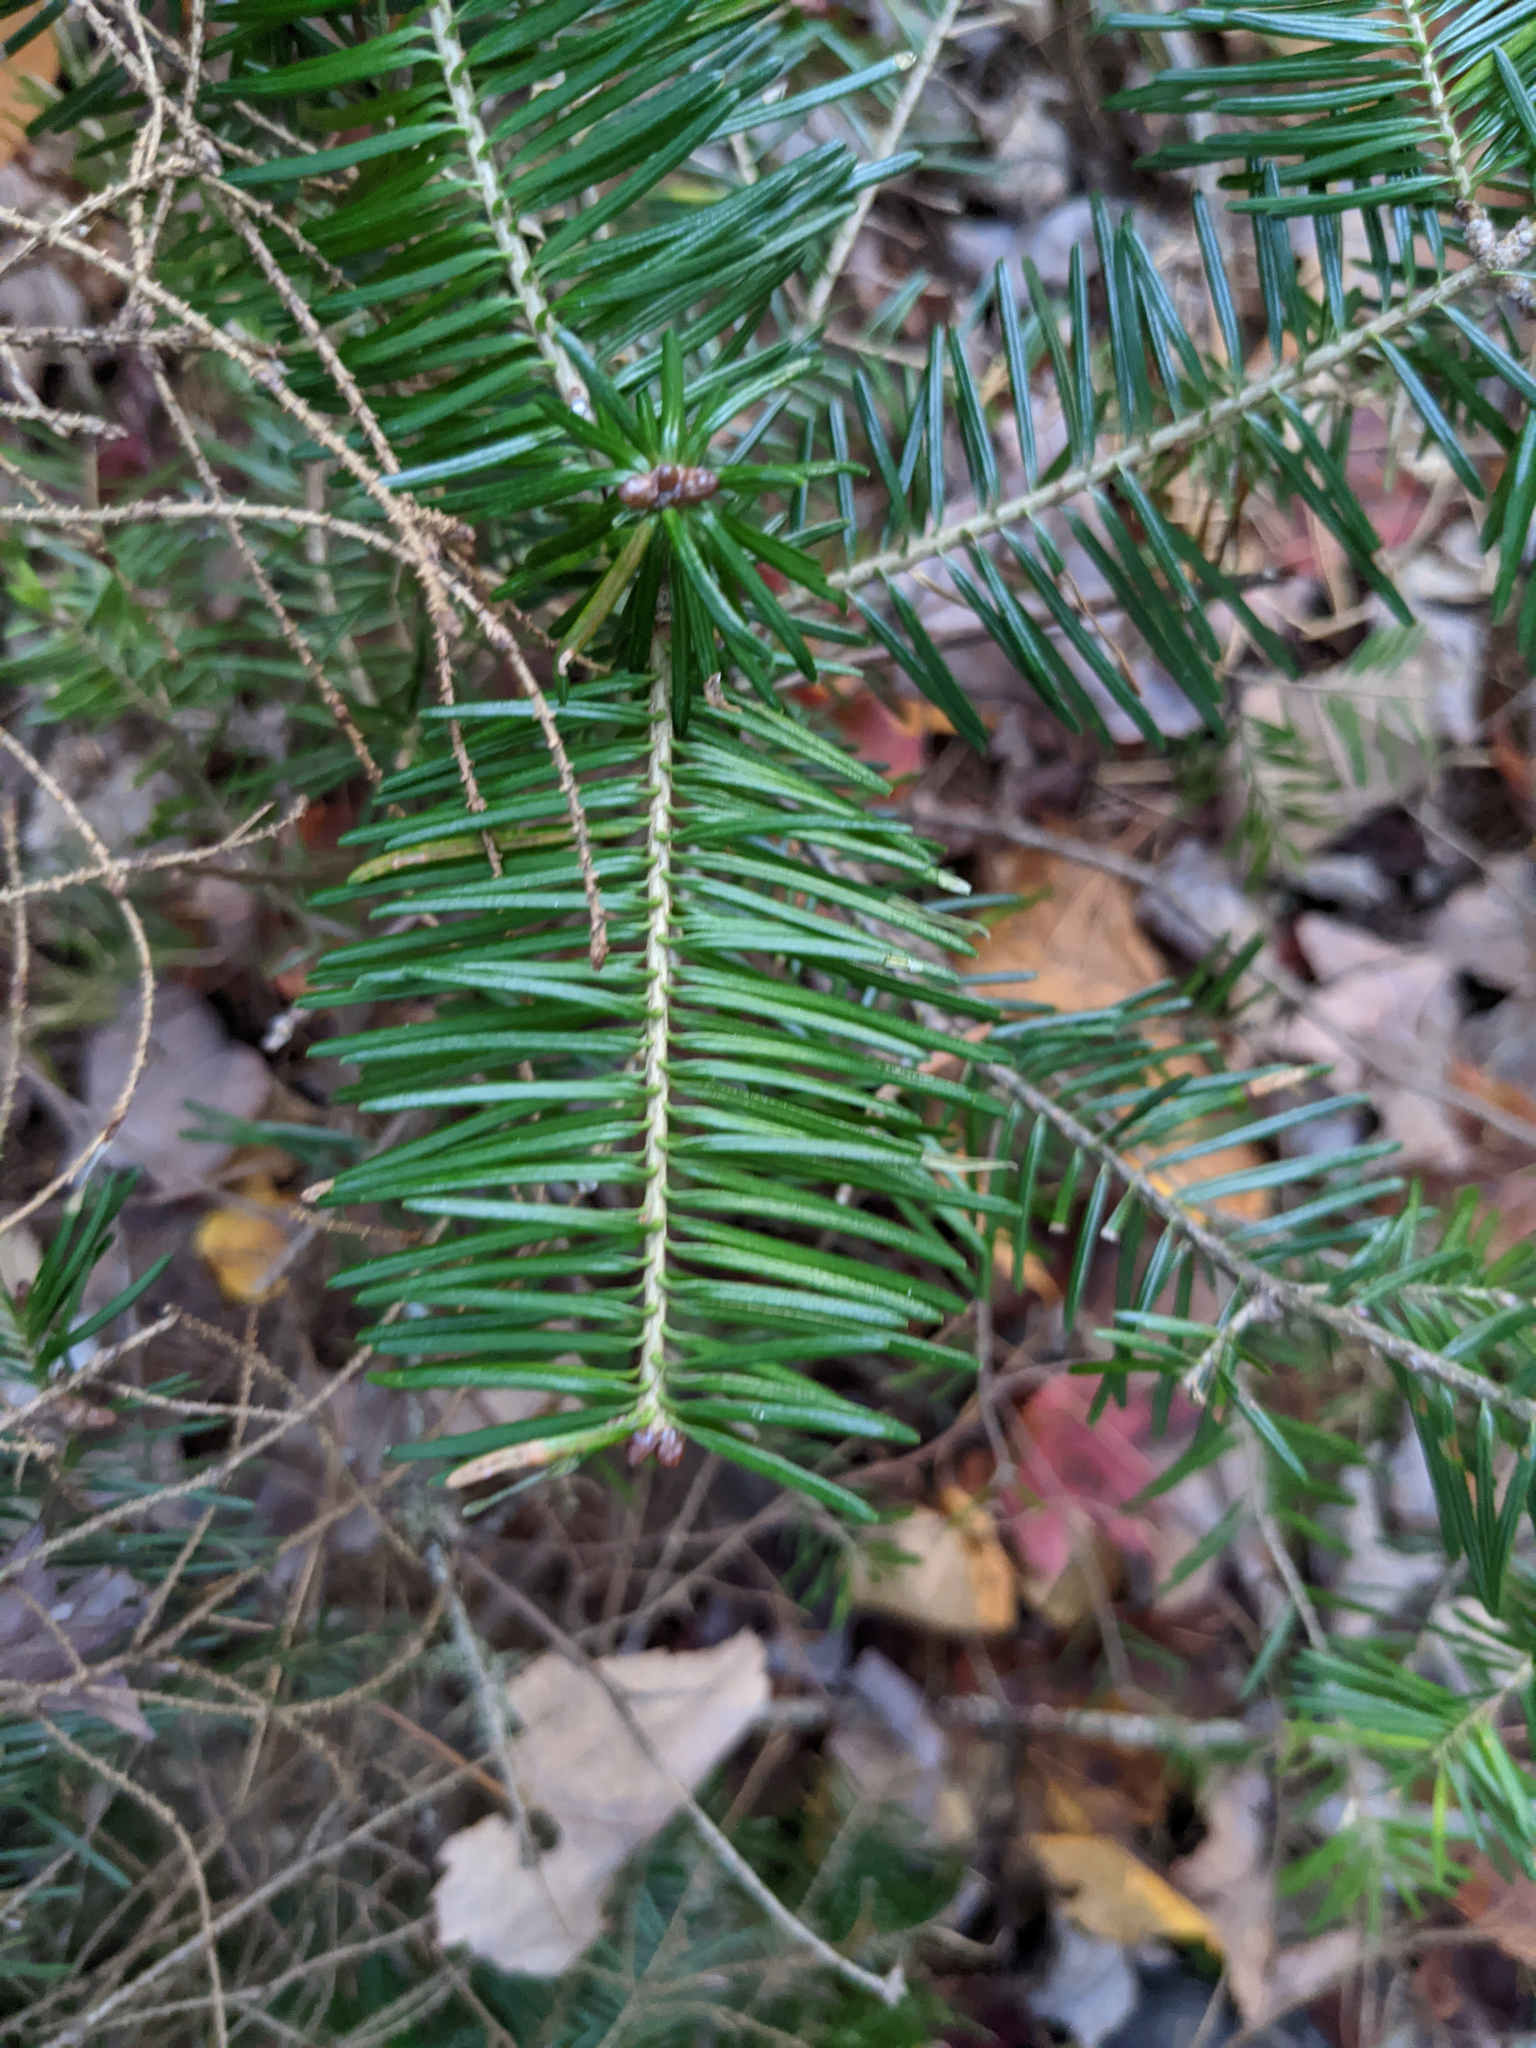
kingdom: Plantae
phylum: Tracheophyta
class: Pinopsida
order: Pinales
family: Pinaceae
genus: Abies
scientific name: Abies balsamea
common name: Balsam fir
